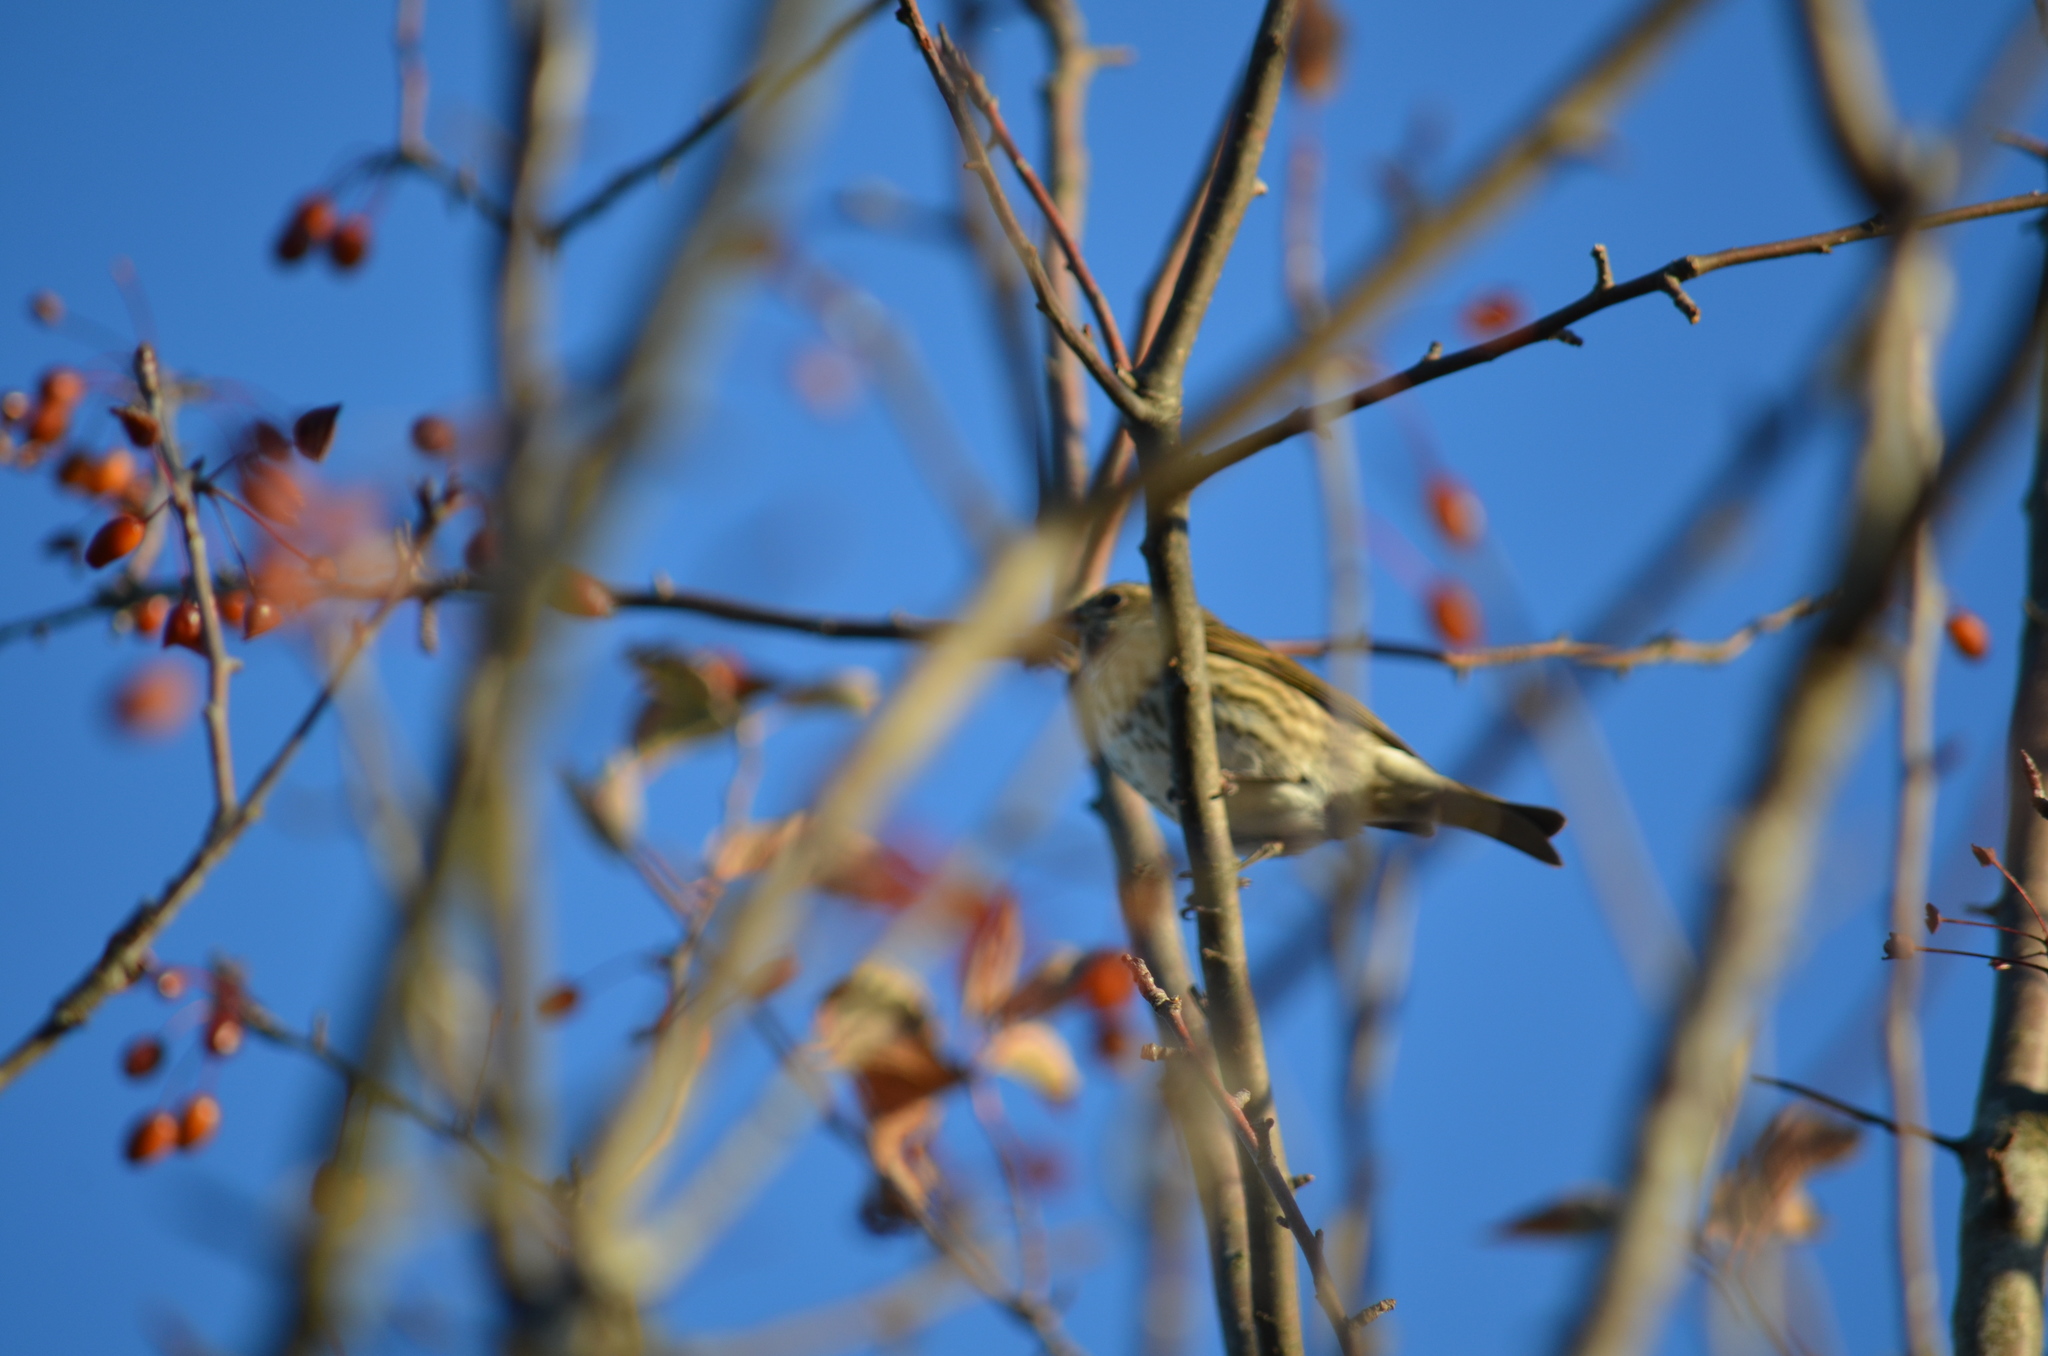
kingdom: Animalia
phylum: Chordata
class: Aves
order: Passeriformes
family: Fringillidae
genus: Haemorhous
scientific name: Haemorhous purpureus
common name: Purple finch
